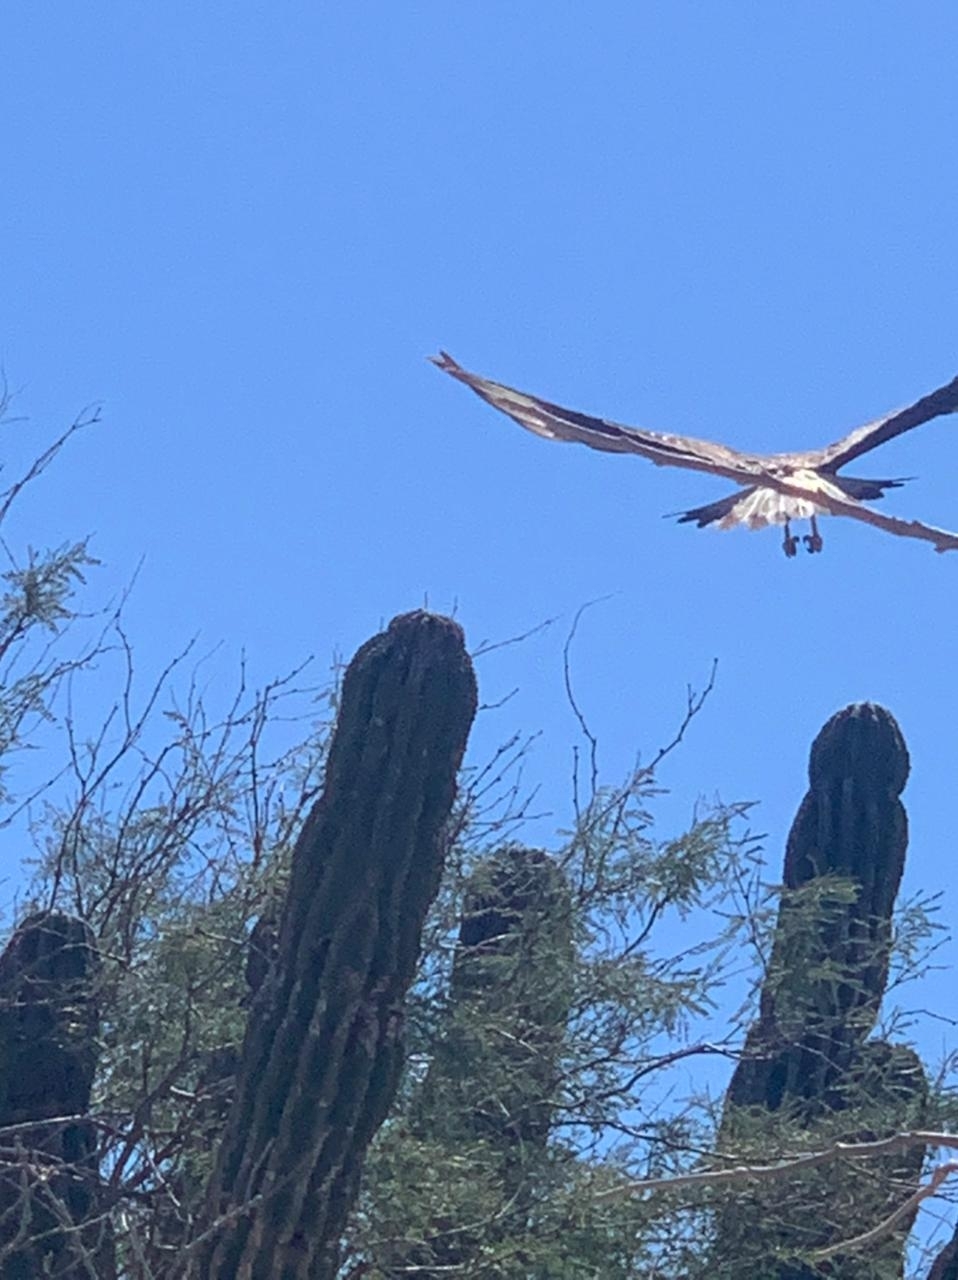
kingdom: Animalia
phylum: Chordata
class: Aves
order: Falconiformes
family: Falconidae
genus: Caracara
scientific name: Caracara plancus
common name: Southern caracara
